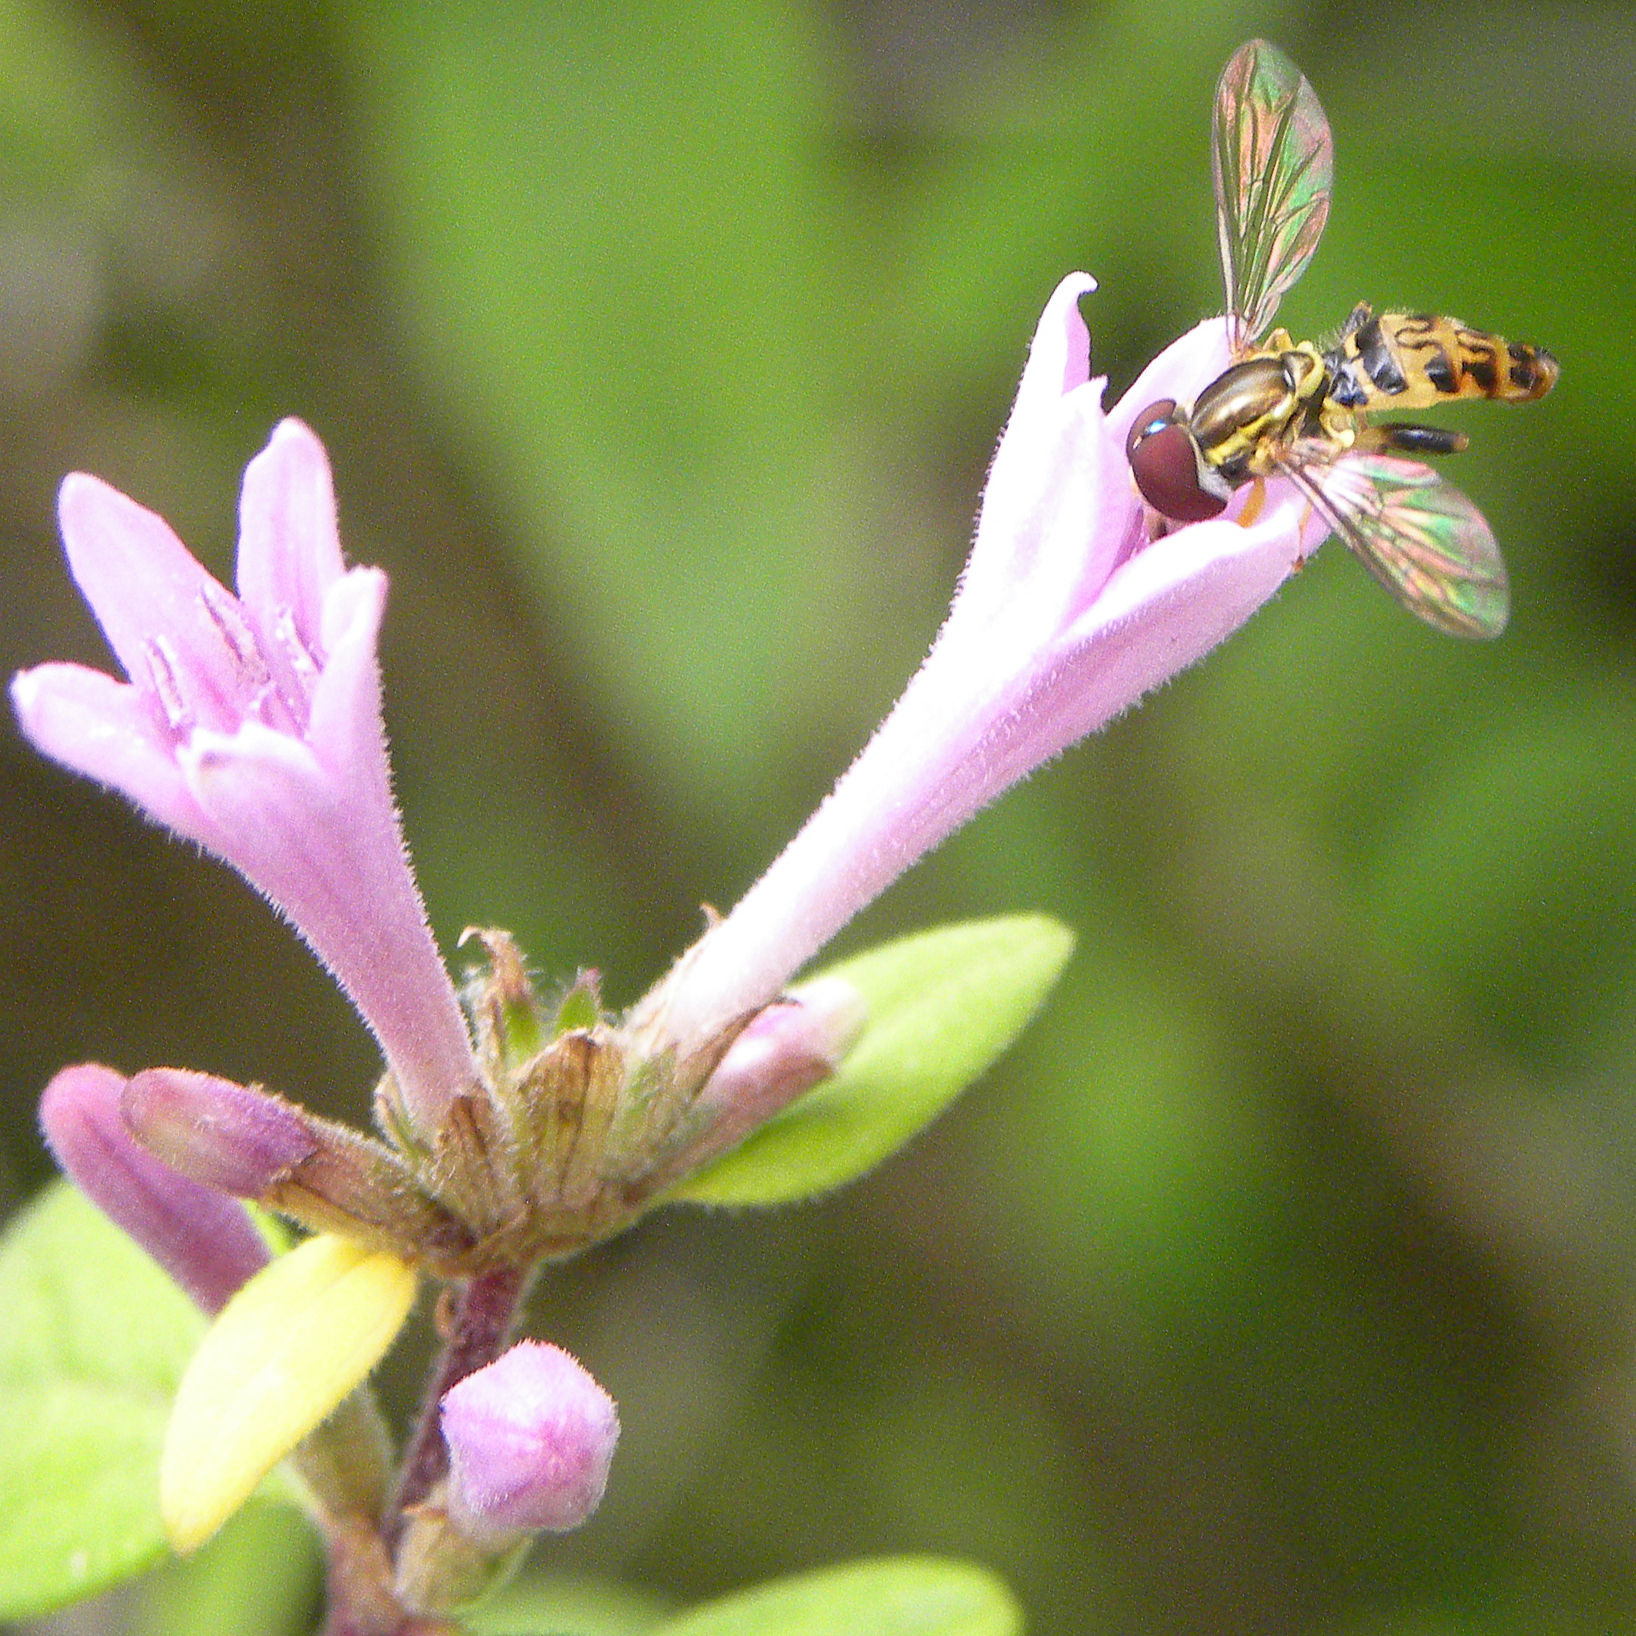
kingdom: Animalia
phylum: Arthropoda
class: Insecta
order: Diptera
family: Syrphidae
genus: Toxomerus
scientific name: Toxomerus geminatus
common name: Eastern calligrapher
